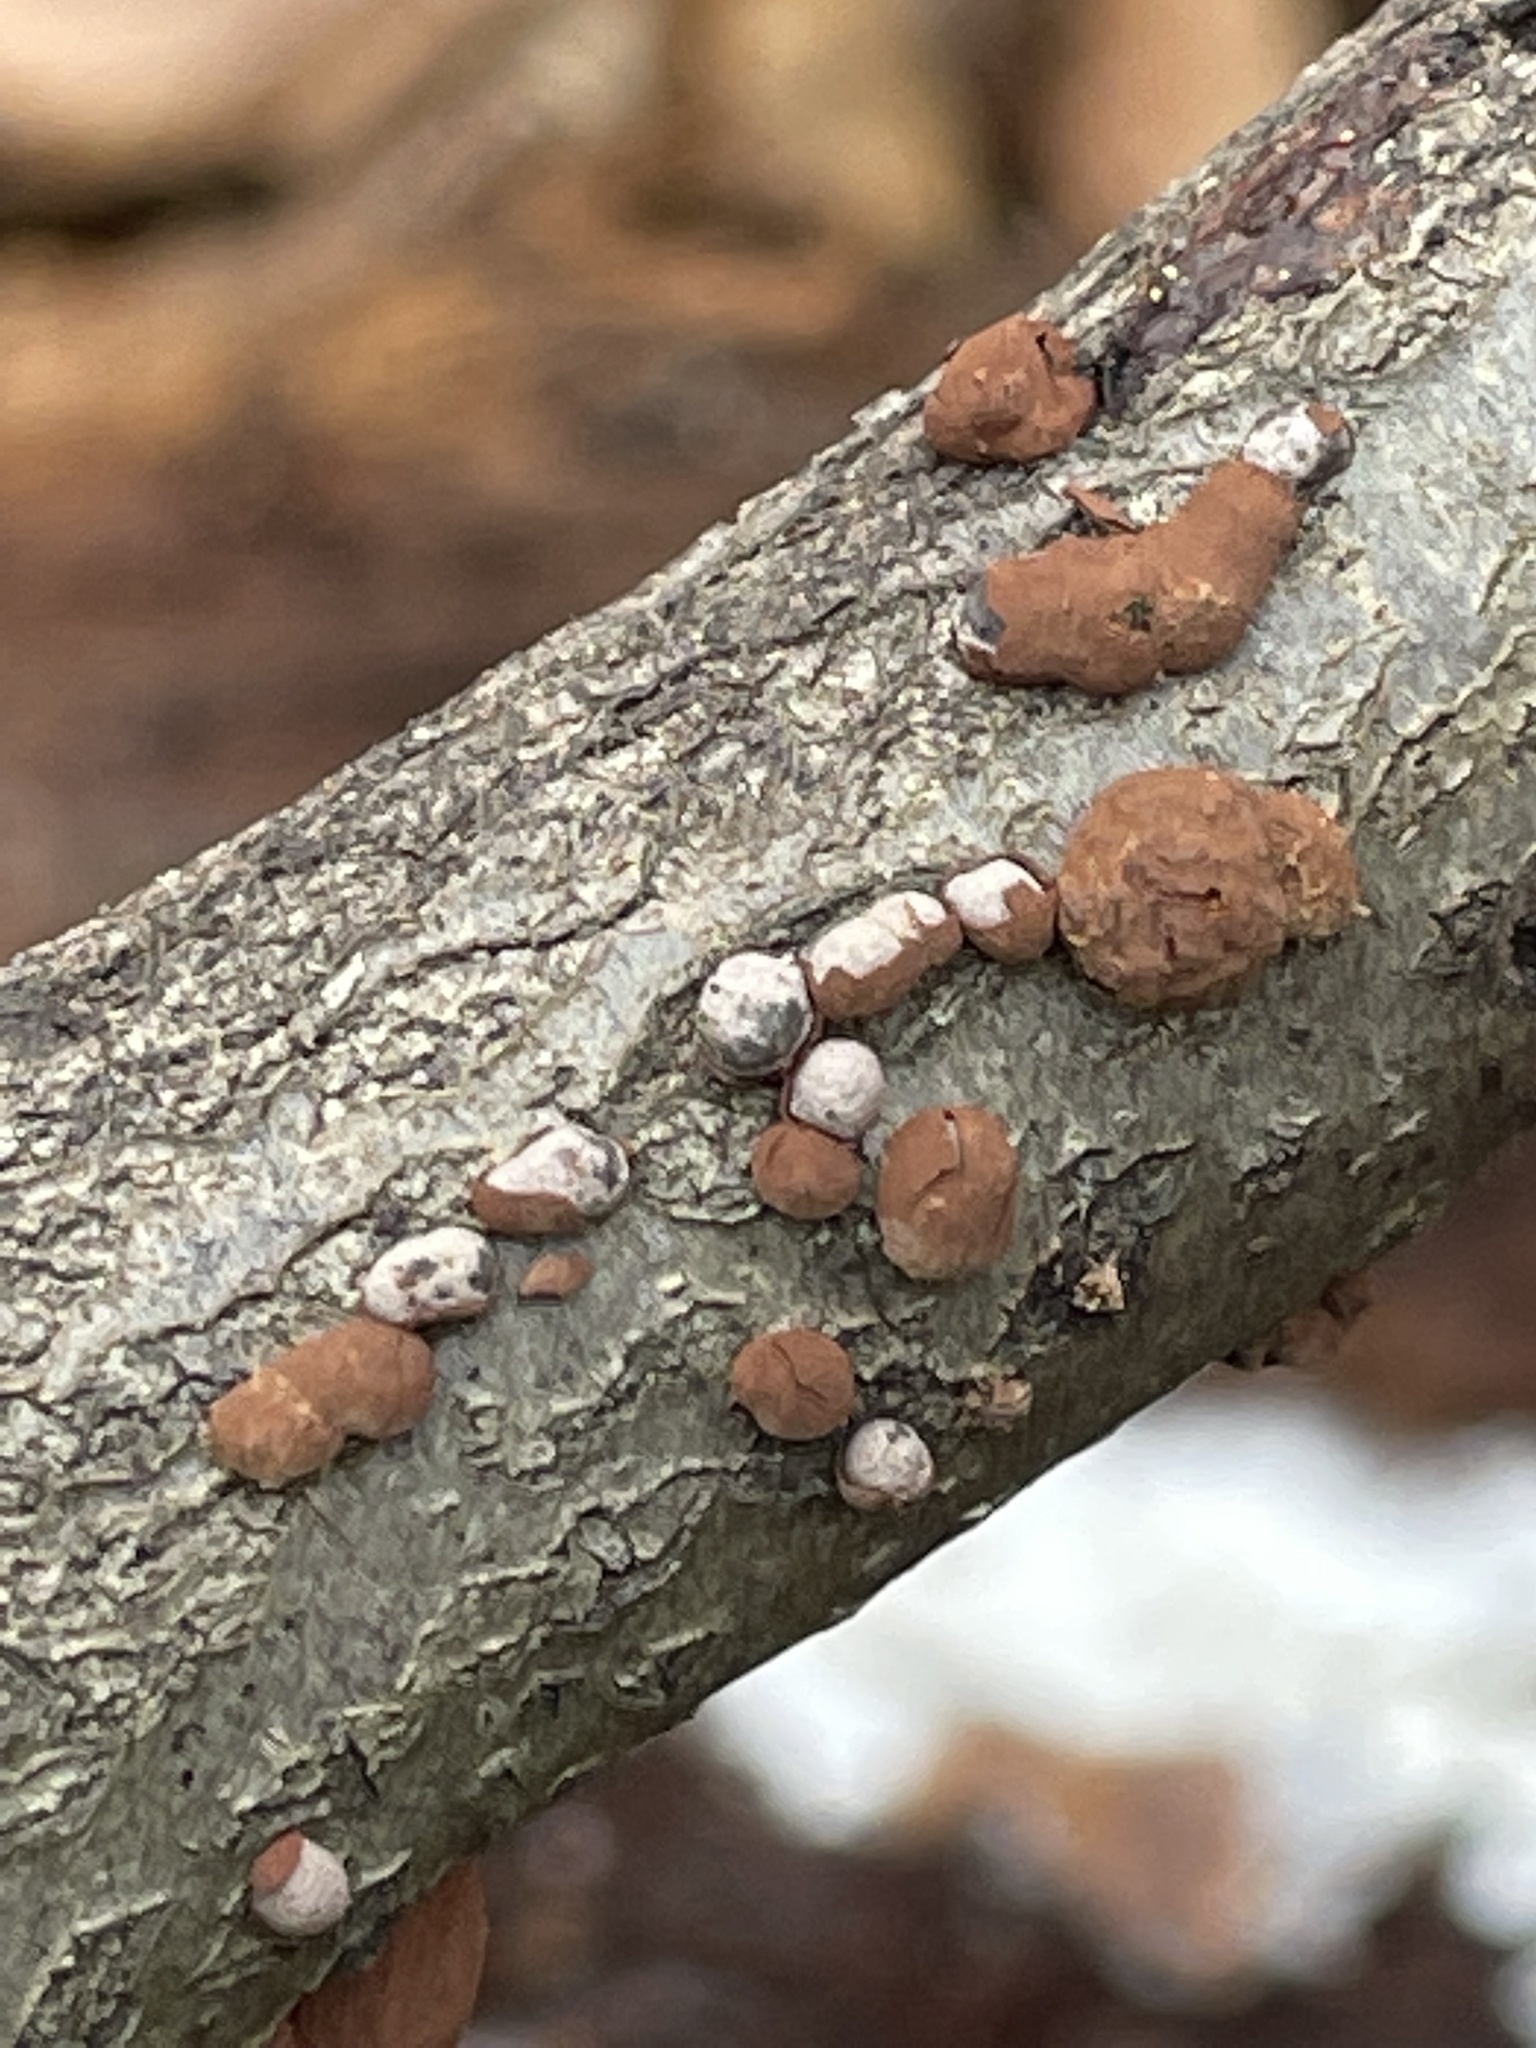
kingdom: Fungi
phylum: Ascomycota
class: Sordariomycetes
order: Xylariales
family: Hypoxylaceae
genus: Hypoxylon
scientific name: Hypoxylon fragiforme
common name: Beech woodwart
